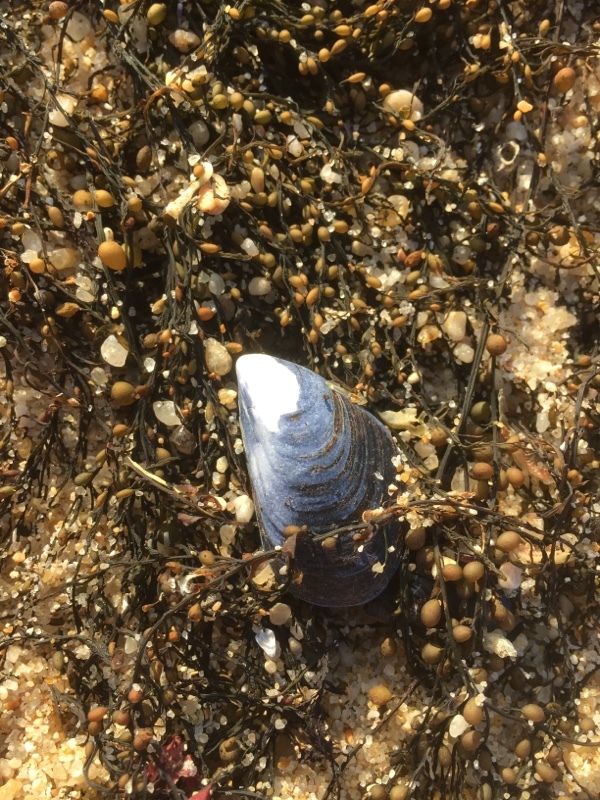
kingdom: Chromista
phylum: Ochrophyta
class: Phaeophyceae
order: Fucales
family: Sargassaceae
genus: Sargassum
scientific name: Sargassum muticum
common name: Japweed
